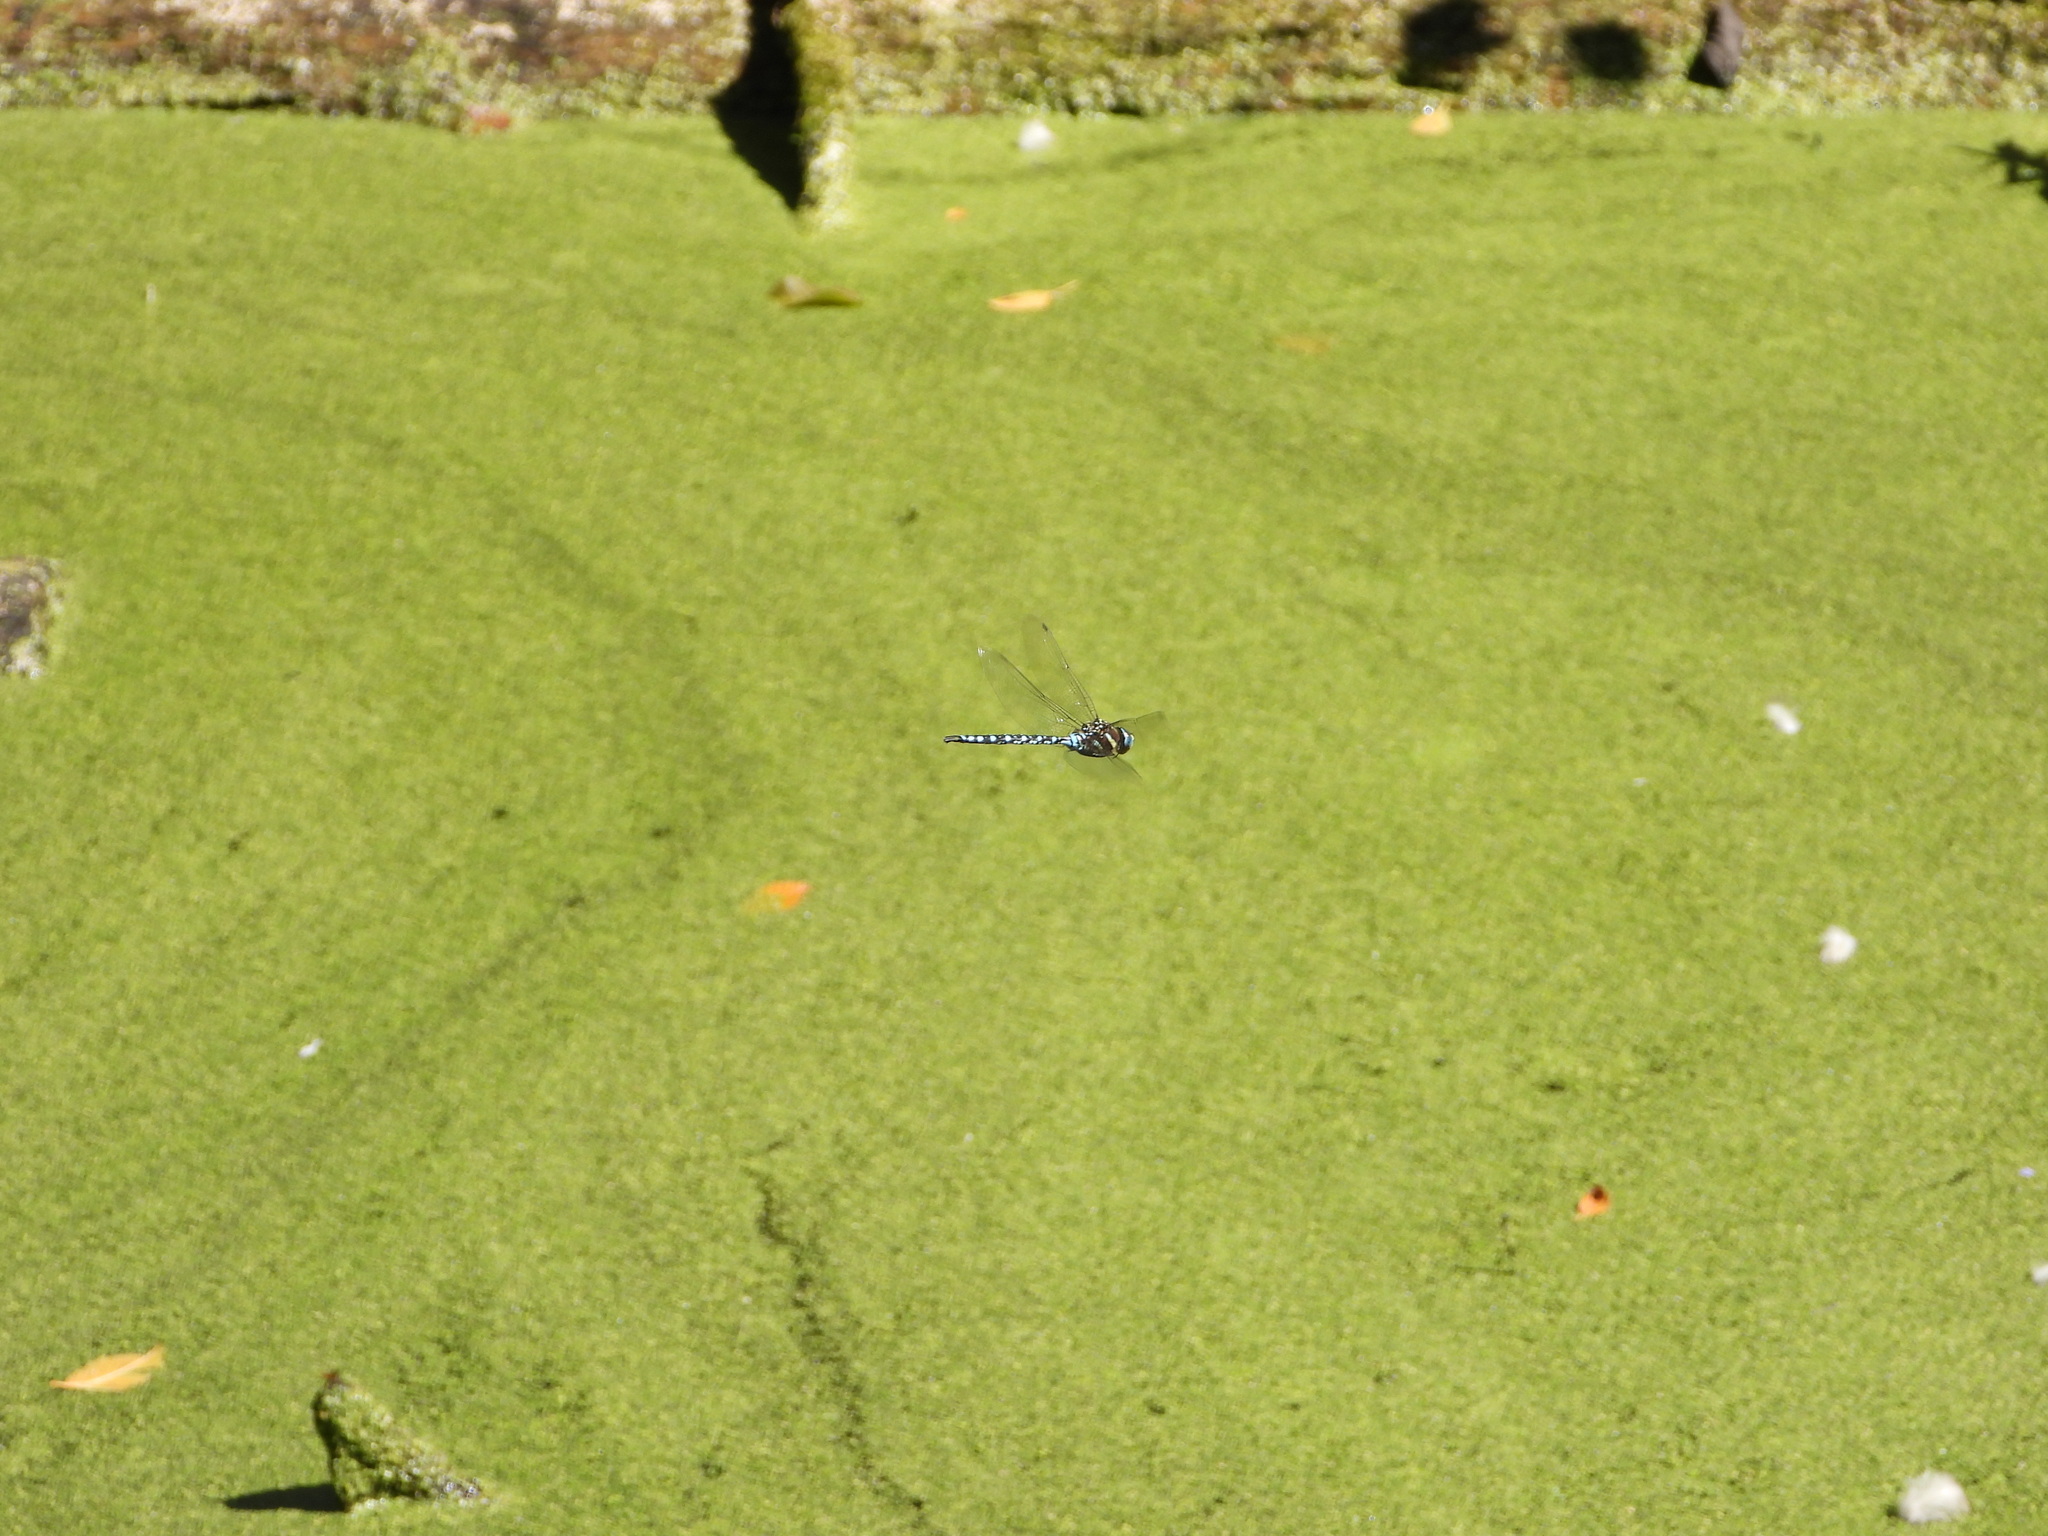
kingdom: Animalia
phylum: Arthropoda
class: Insecta
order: Odonata
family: Aeshnidae
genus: Aeshna
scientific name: Aeshna palmata
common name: Paddle-tailed darner
